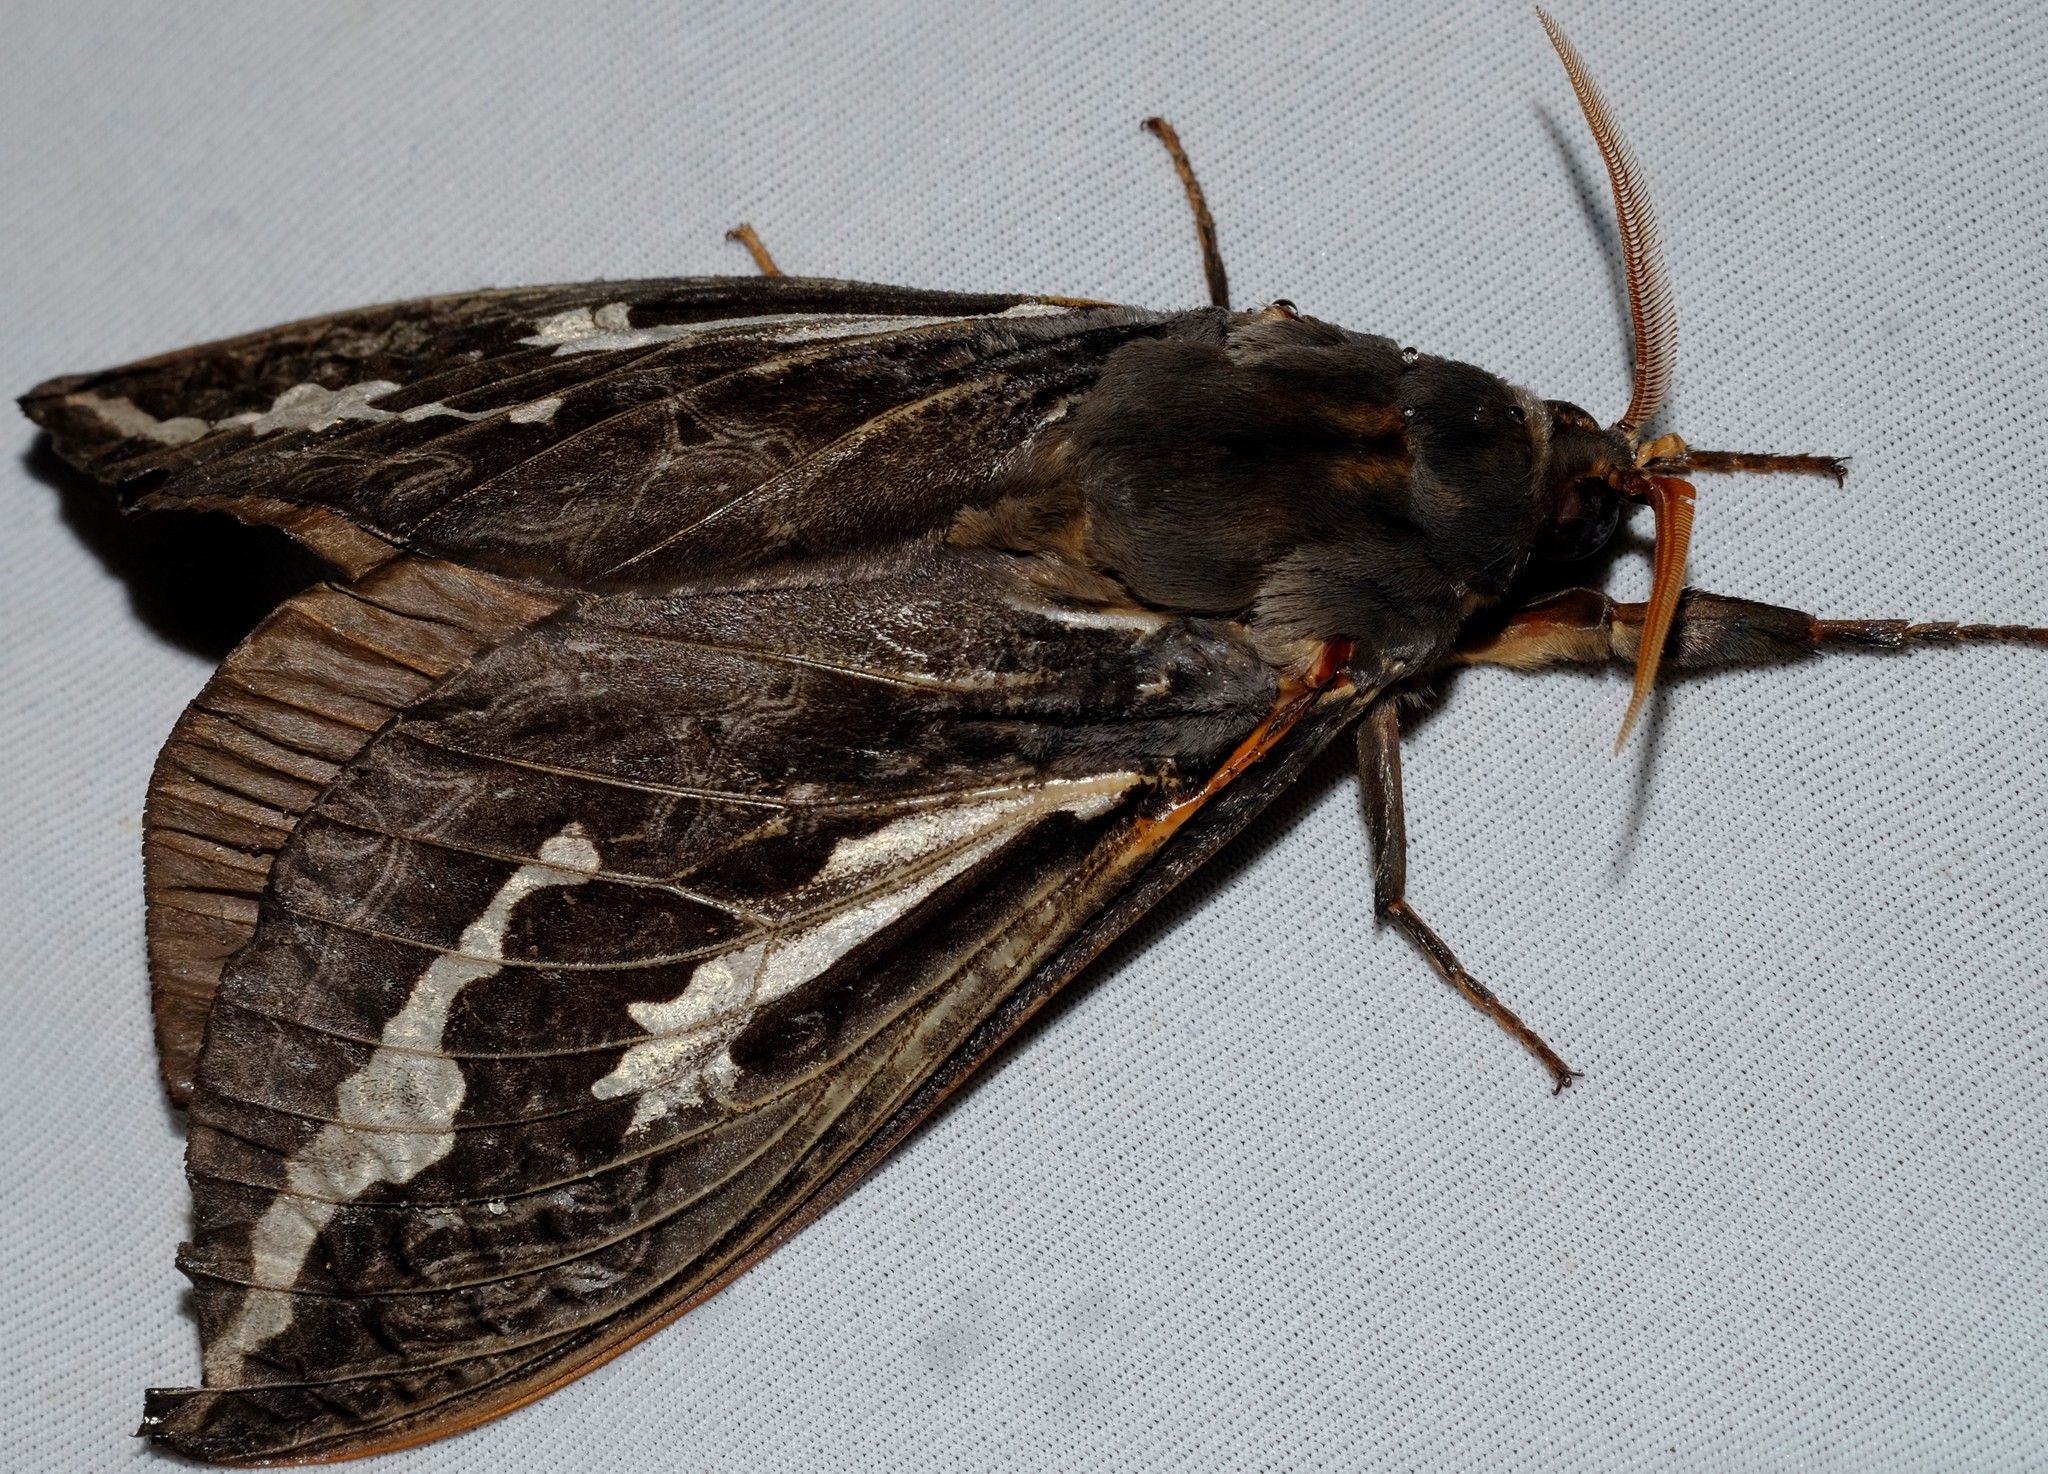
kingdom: Animalia
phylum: Arthropoda
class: Insecta
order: Lepidoptera
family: Hepialidae
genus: Abantiades
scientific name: Abantiades atripalpis
